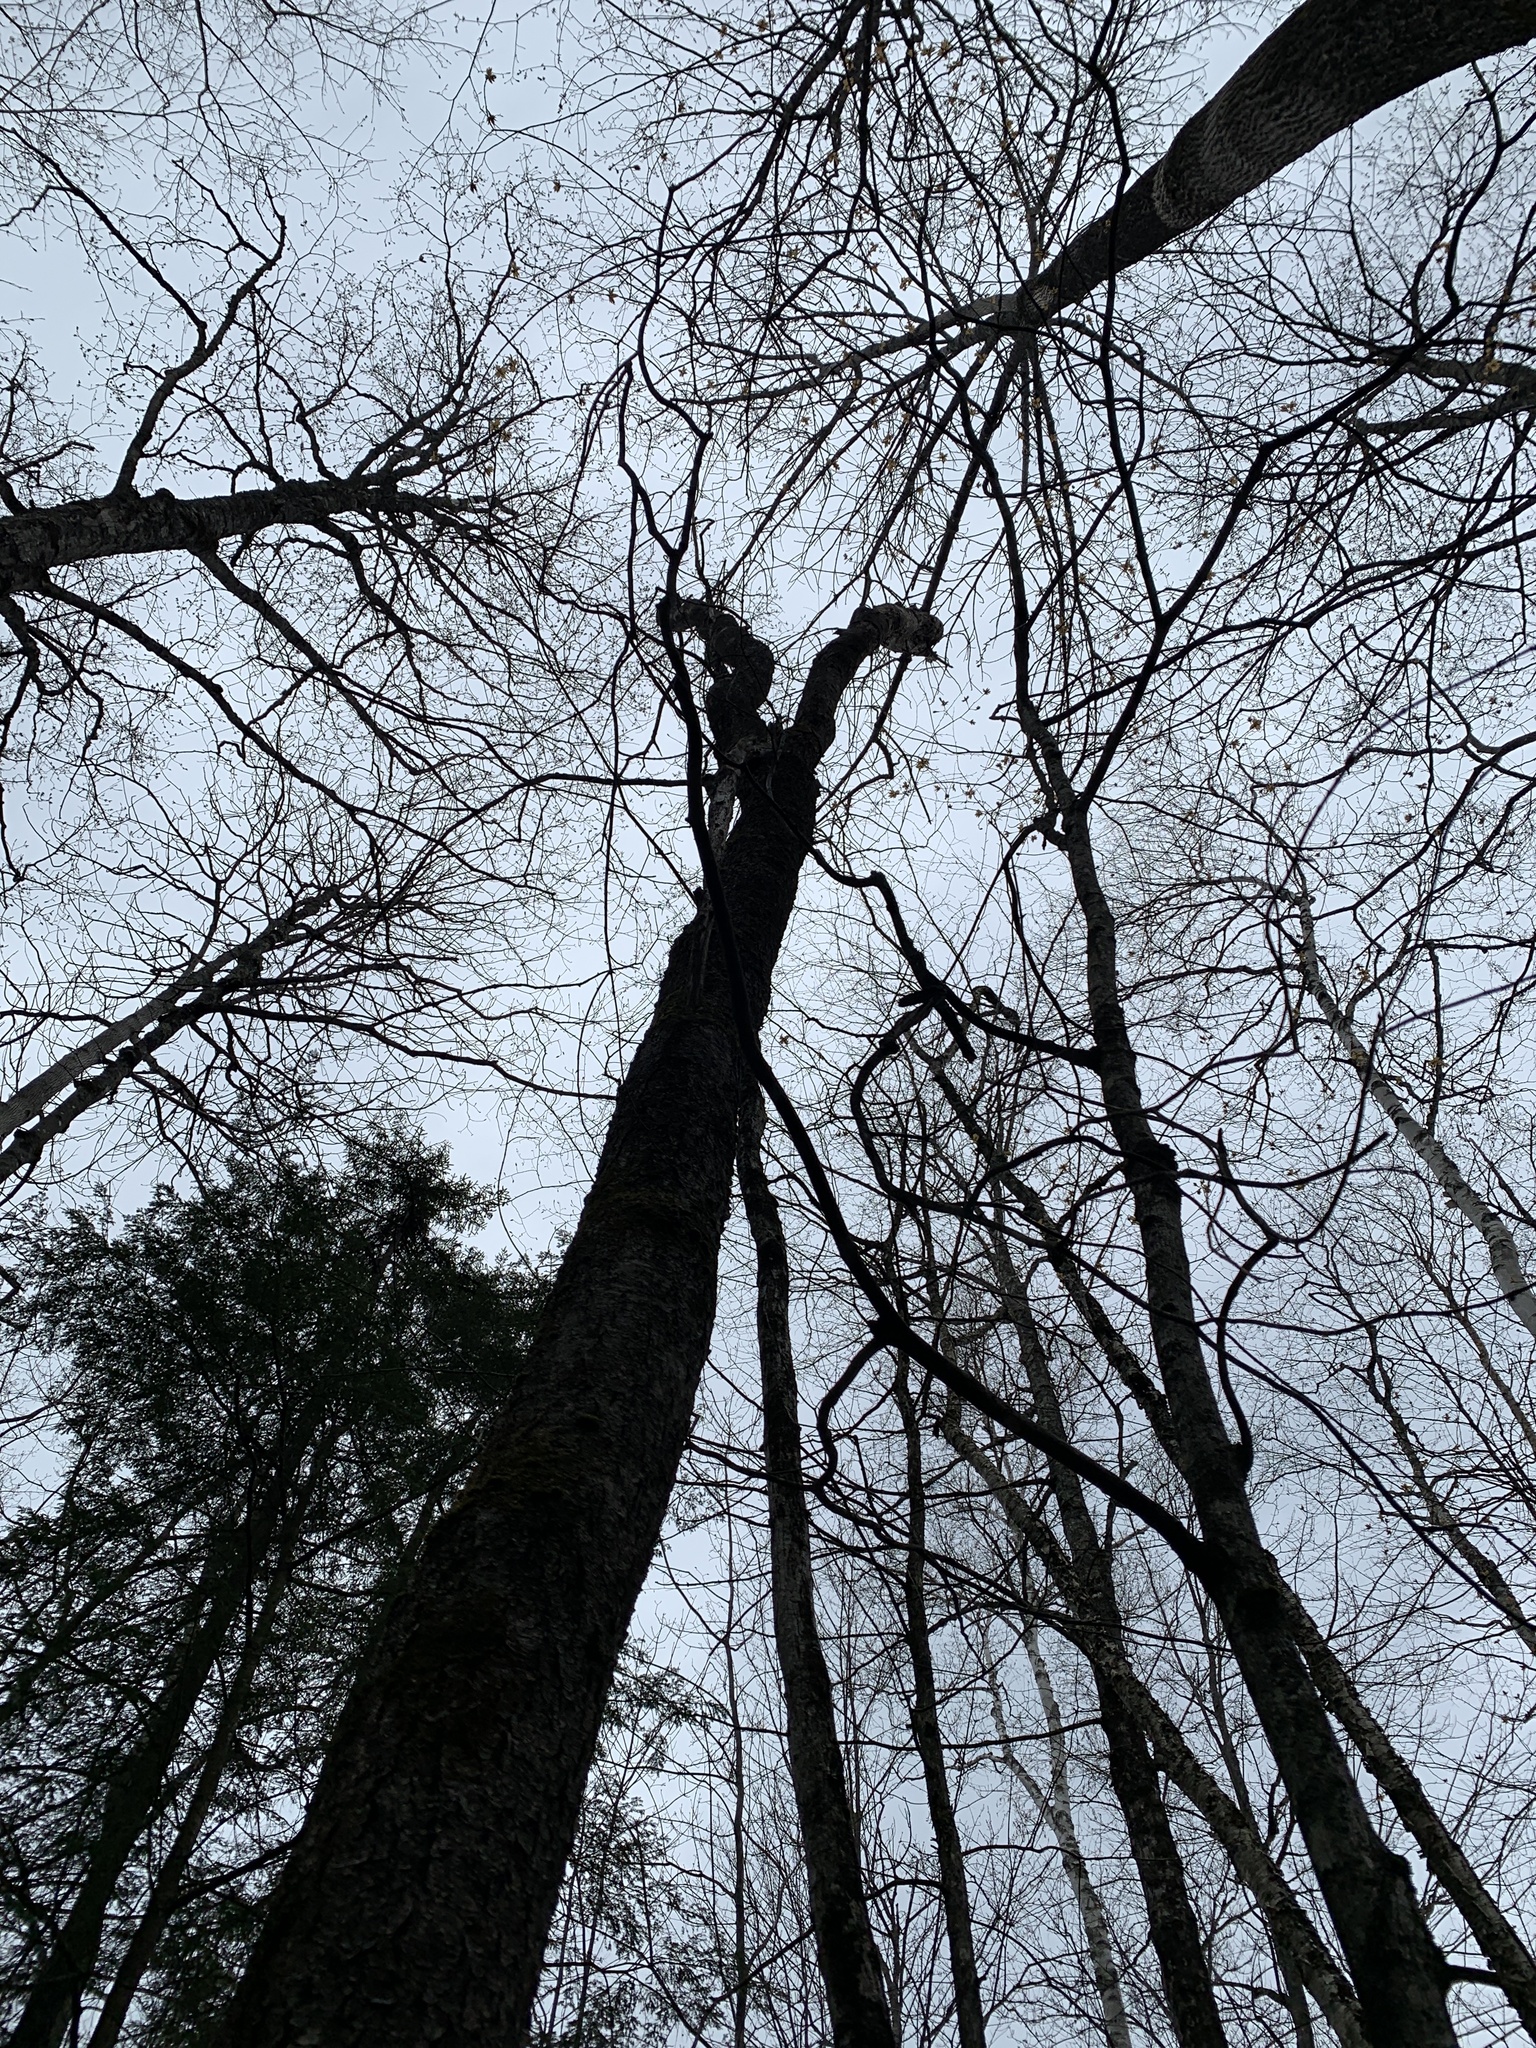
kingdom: Plantae
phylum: Tracheophyta
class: Magnoliopsida
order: Rosales
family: Rosaceae
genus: Prunus
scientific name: Prunus serotina
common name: Black cherry
